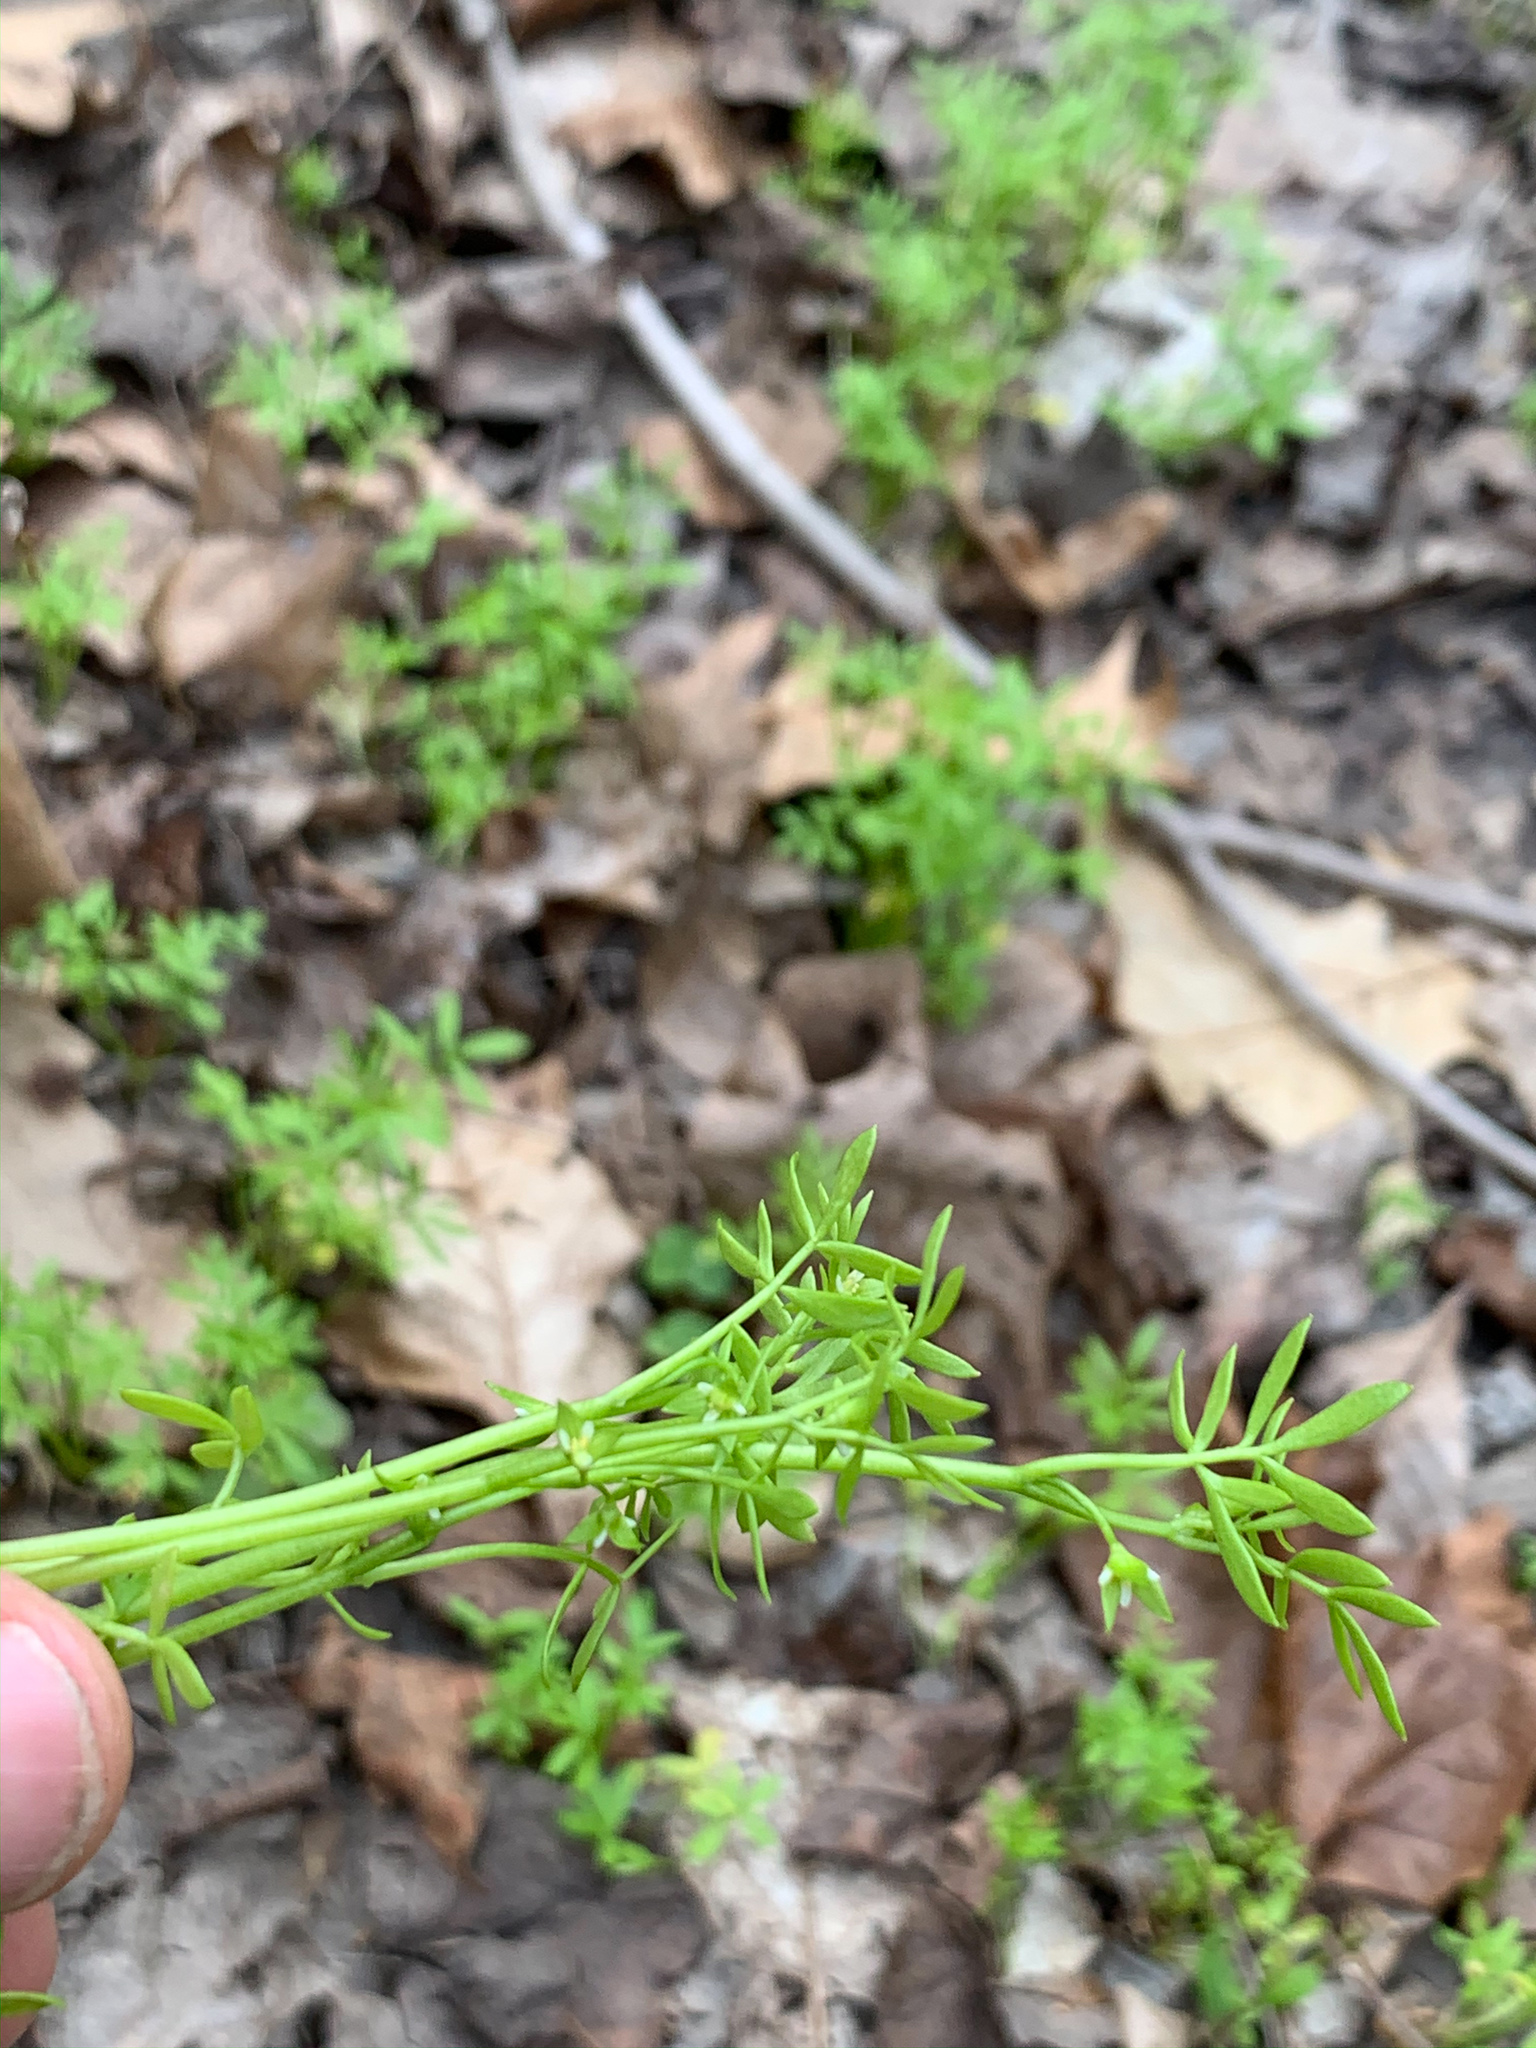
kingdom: Plantae
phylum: Tracheophyta
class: Magnoliopsida
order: Brassicales
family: Limnanthaceae
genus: Floerkea
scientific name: Floerkea proserpinacoides
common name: False mermaid
